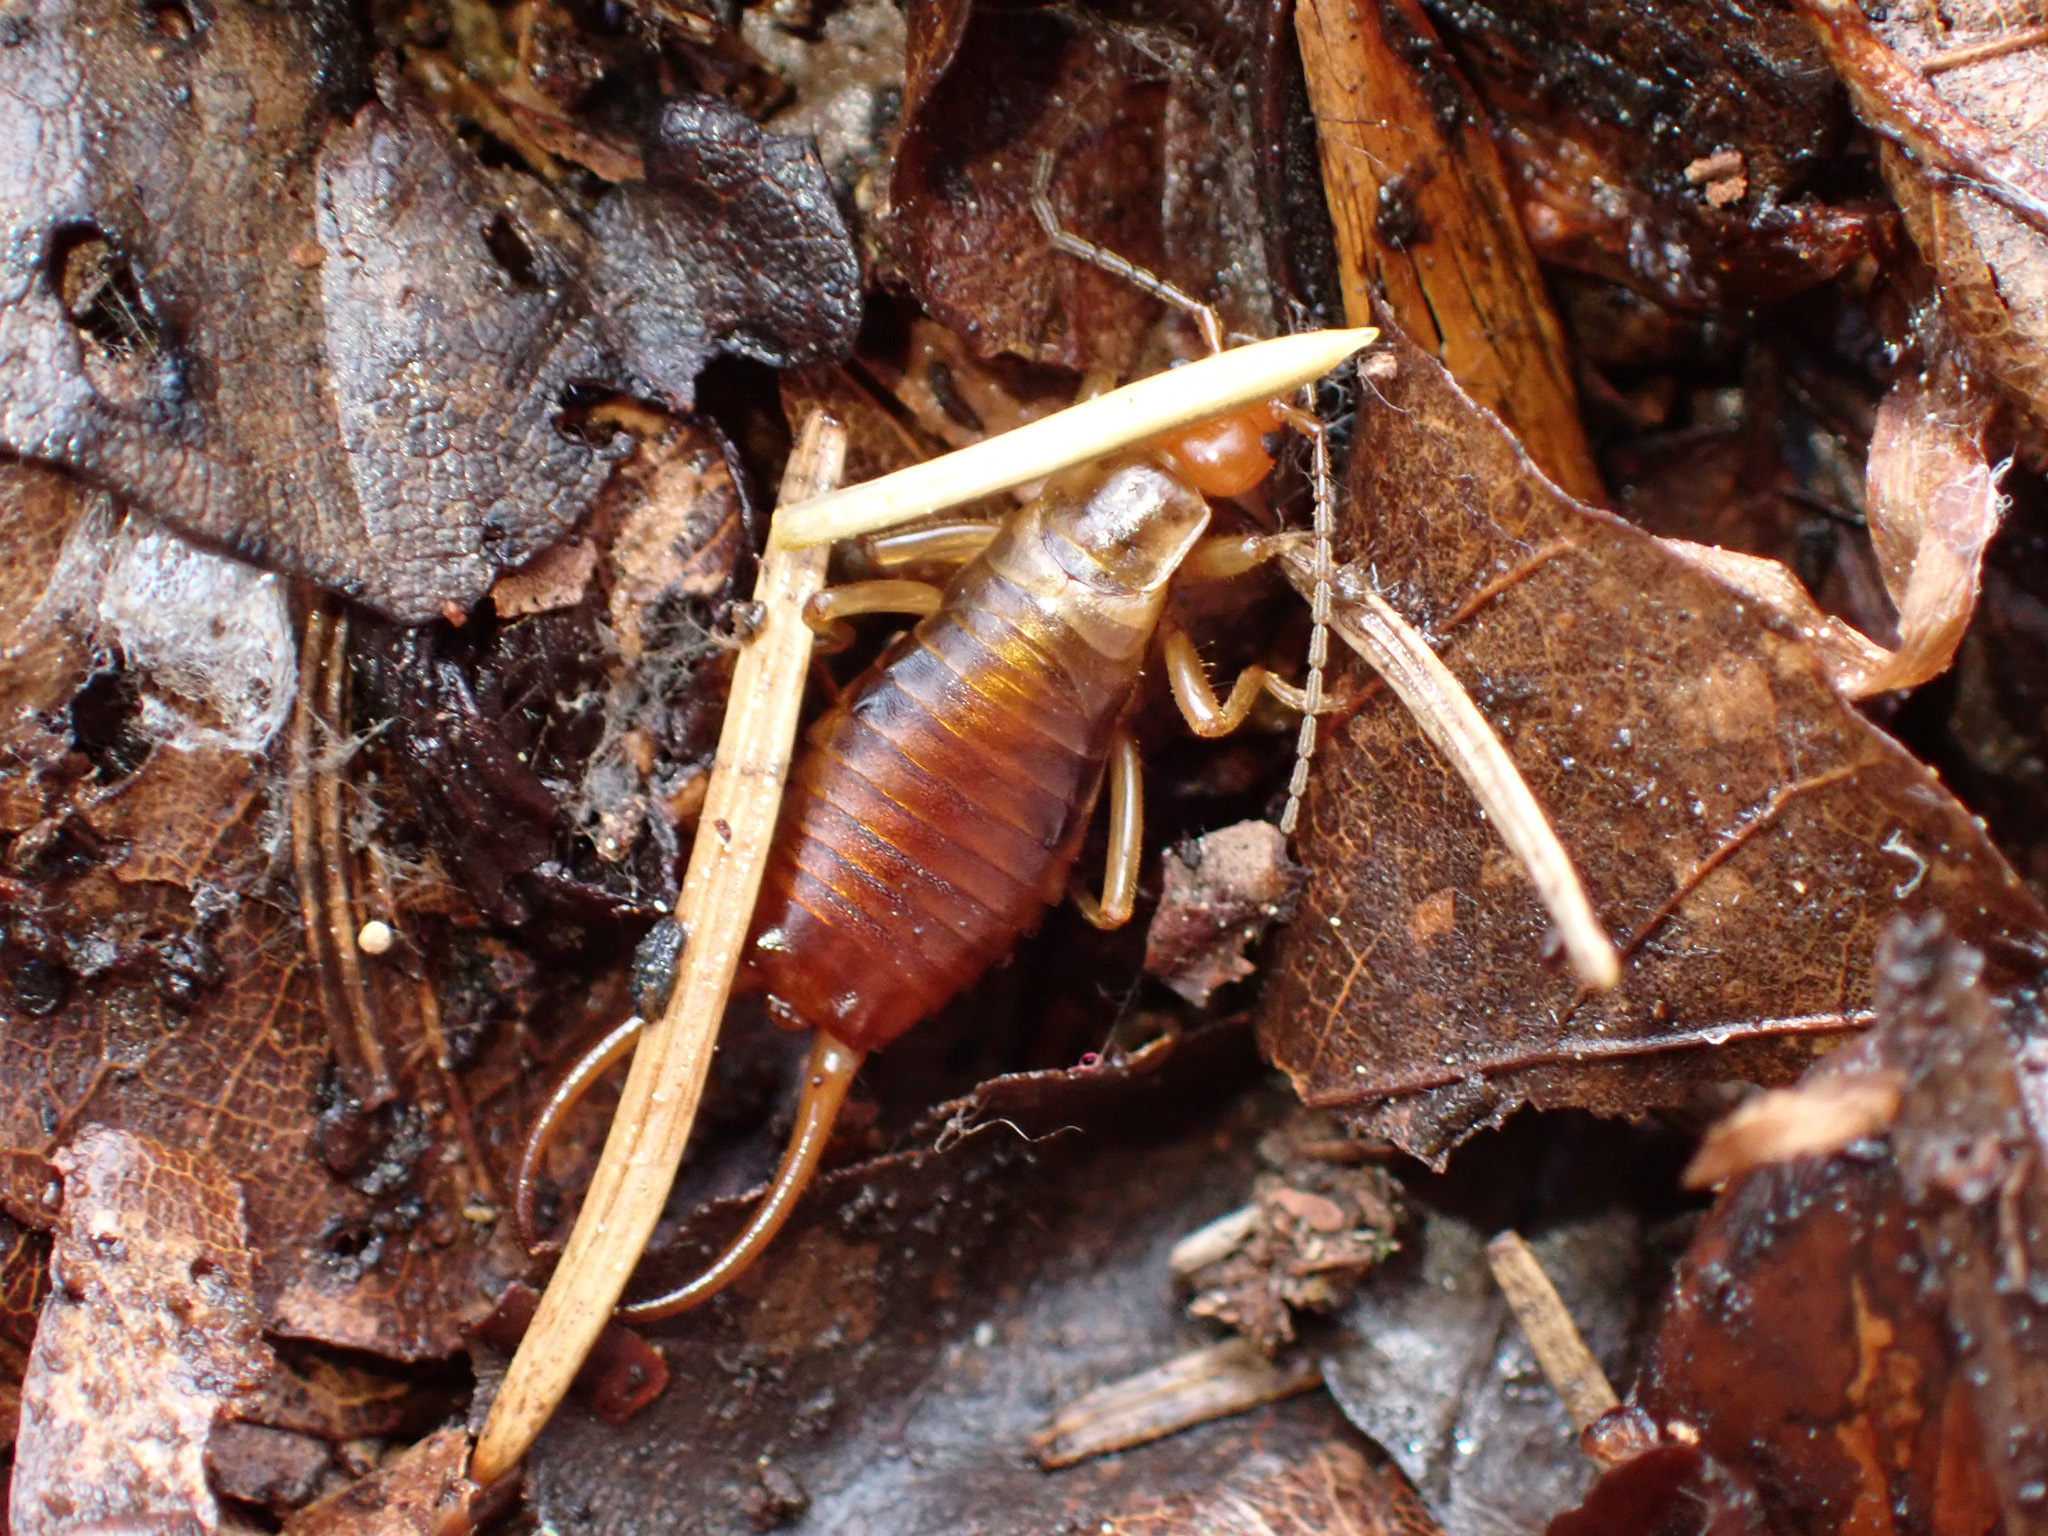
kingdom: Animalia
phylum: Arthropoda
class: Insecta
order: Dermaptera
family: Forficulidae
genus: Chelidurella
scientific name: Chelidurella acanthopygia
